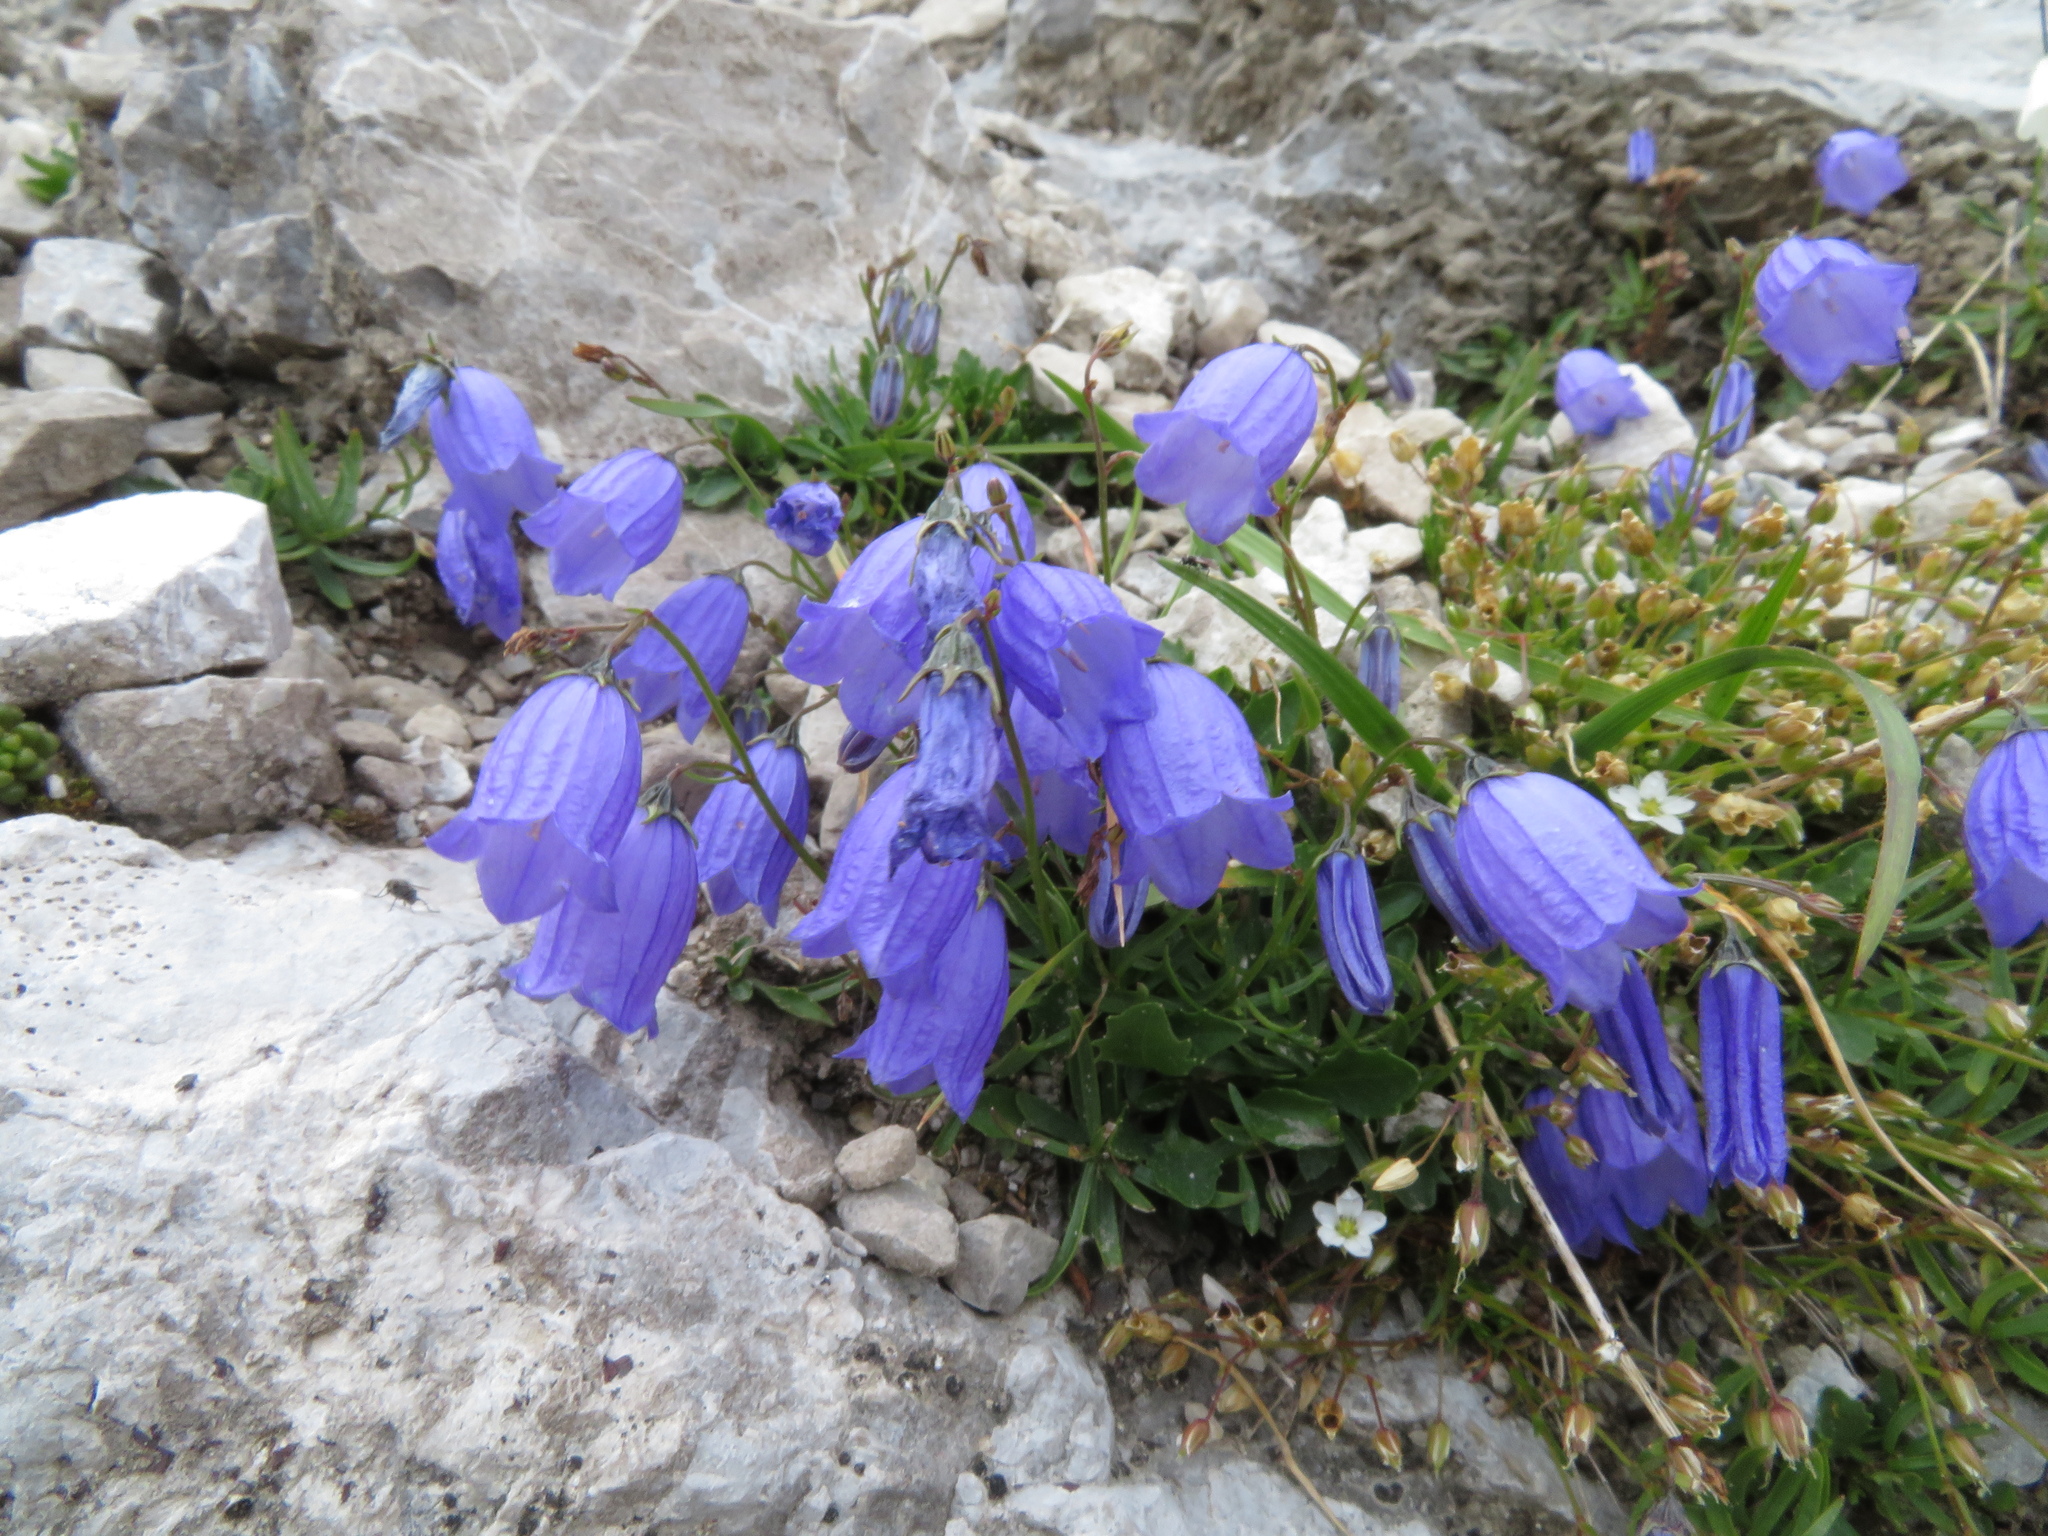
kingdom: Plantae
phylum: Tracheophyta
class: Magnoliopsida
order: Asterales
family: Campanulaceae
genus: Campanula
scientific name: Campanula cochleariifolia
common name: Fairies'-thimbles
